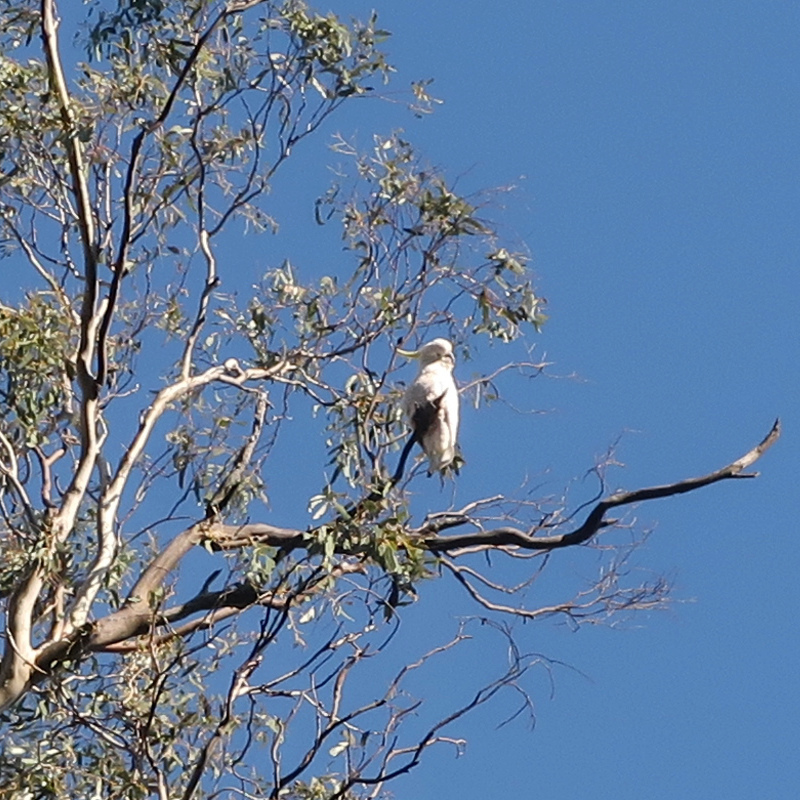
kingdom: Animalia
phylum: Chordata
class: Aves
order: Psittaciformes
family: Psittacidae
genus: Cacatua
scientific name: Cacatua galerita
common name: Sulphur-crested cockatoo
